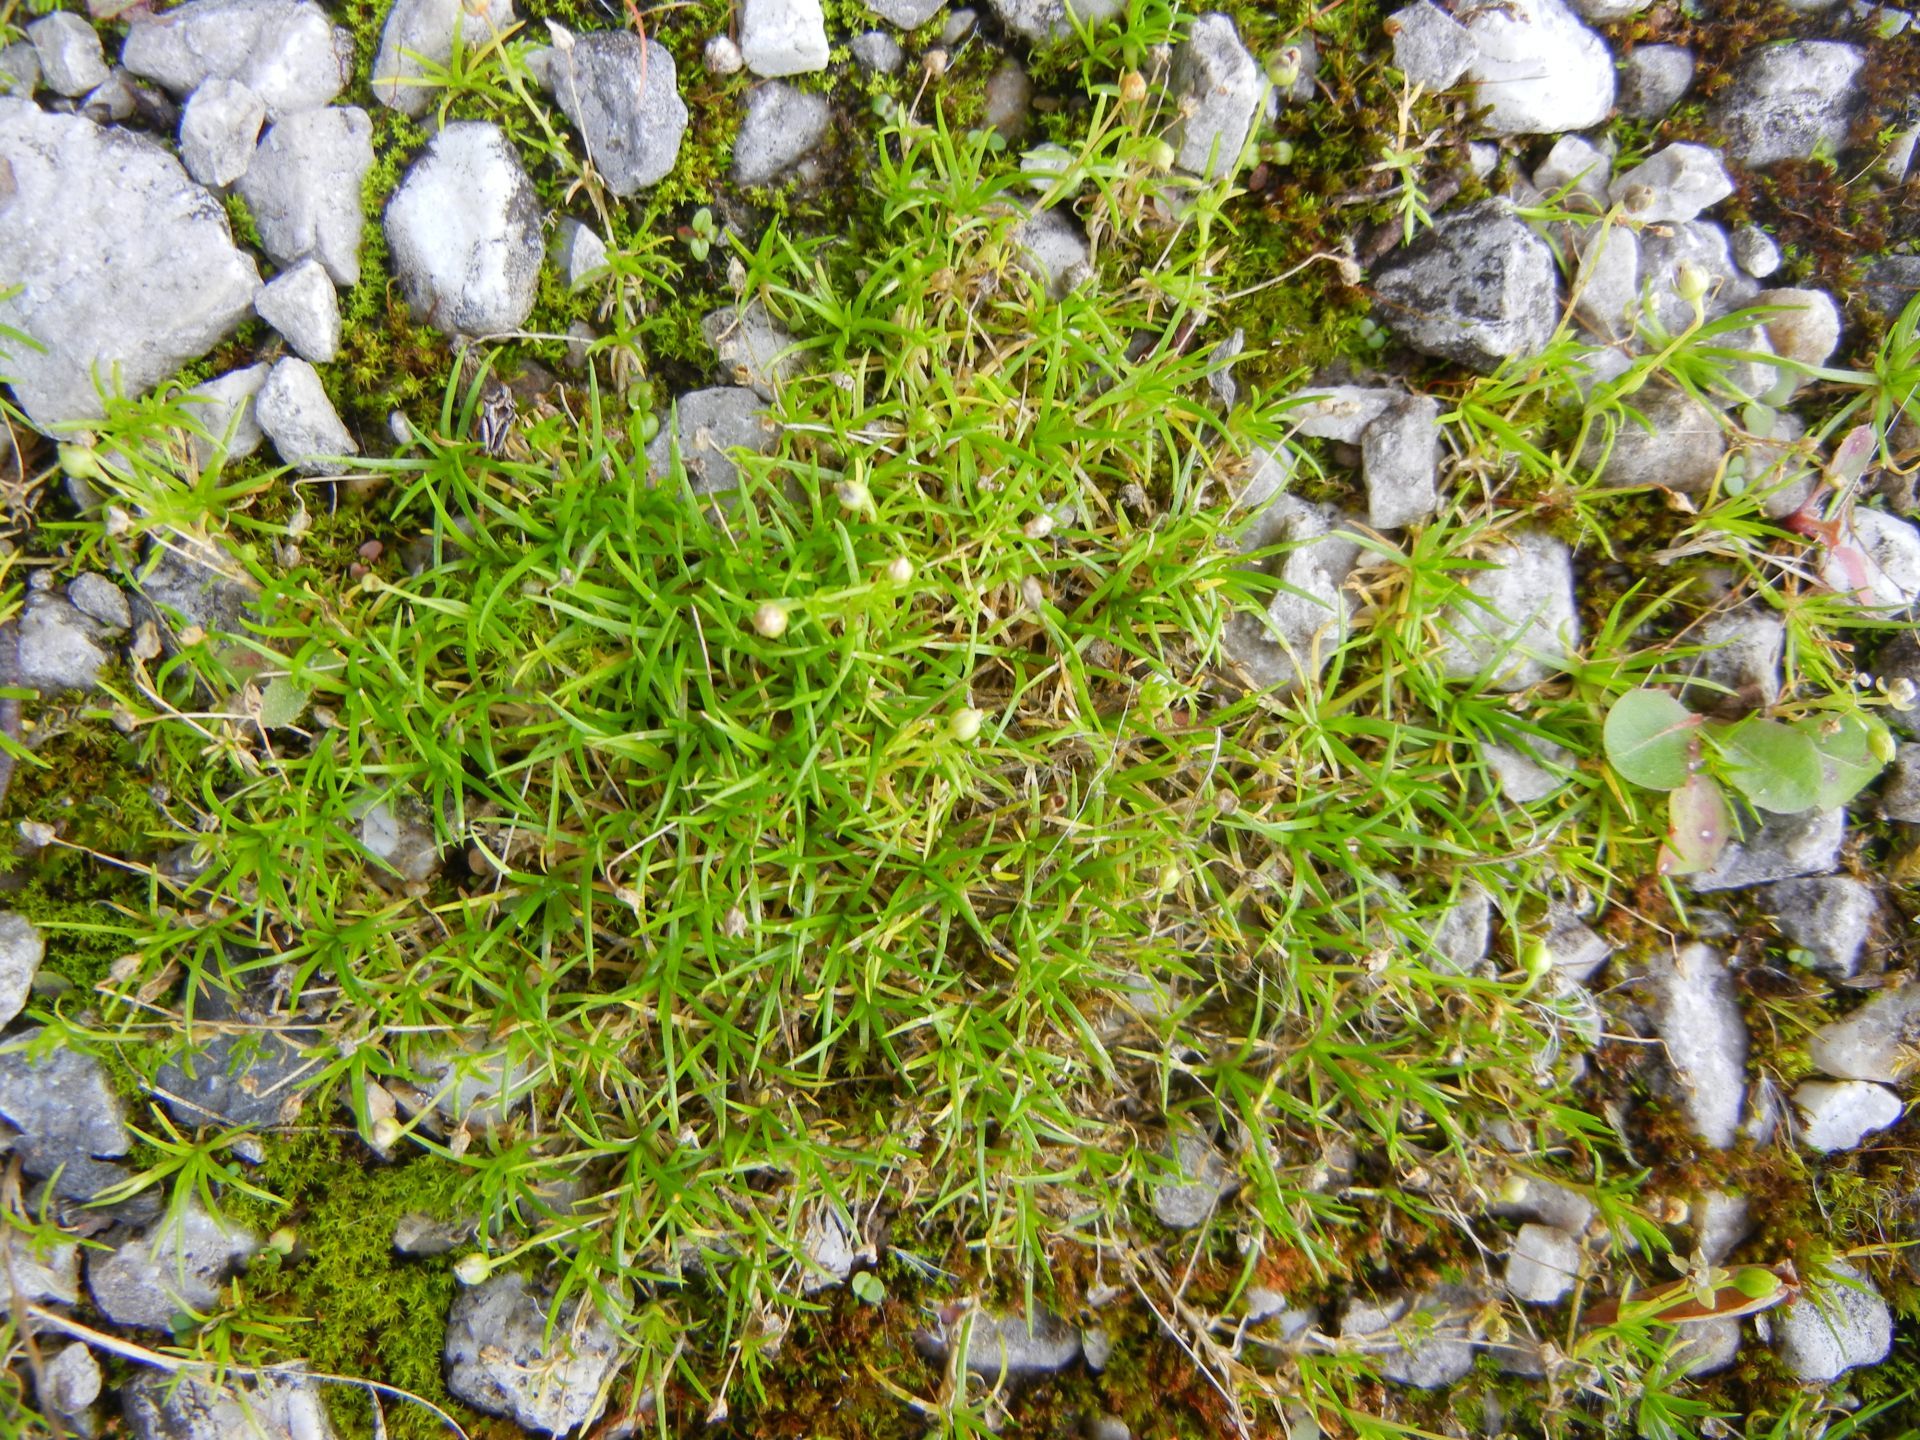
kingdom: Plantae
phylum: Tracheophyta
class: Magnoliopsida
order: Caryophyllales
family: Caryophyllaceae
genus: Sagina
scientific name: Sagina procumbens
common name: Procumbent pearlwort
